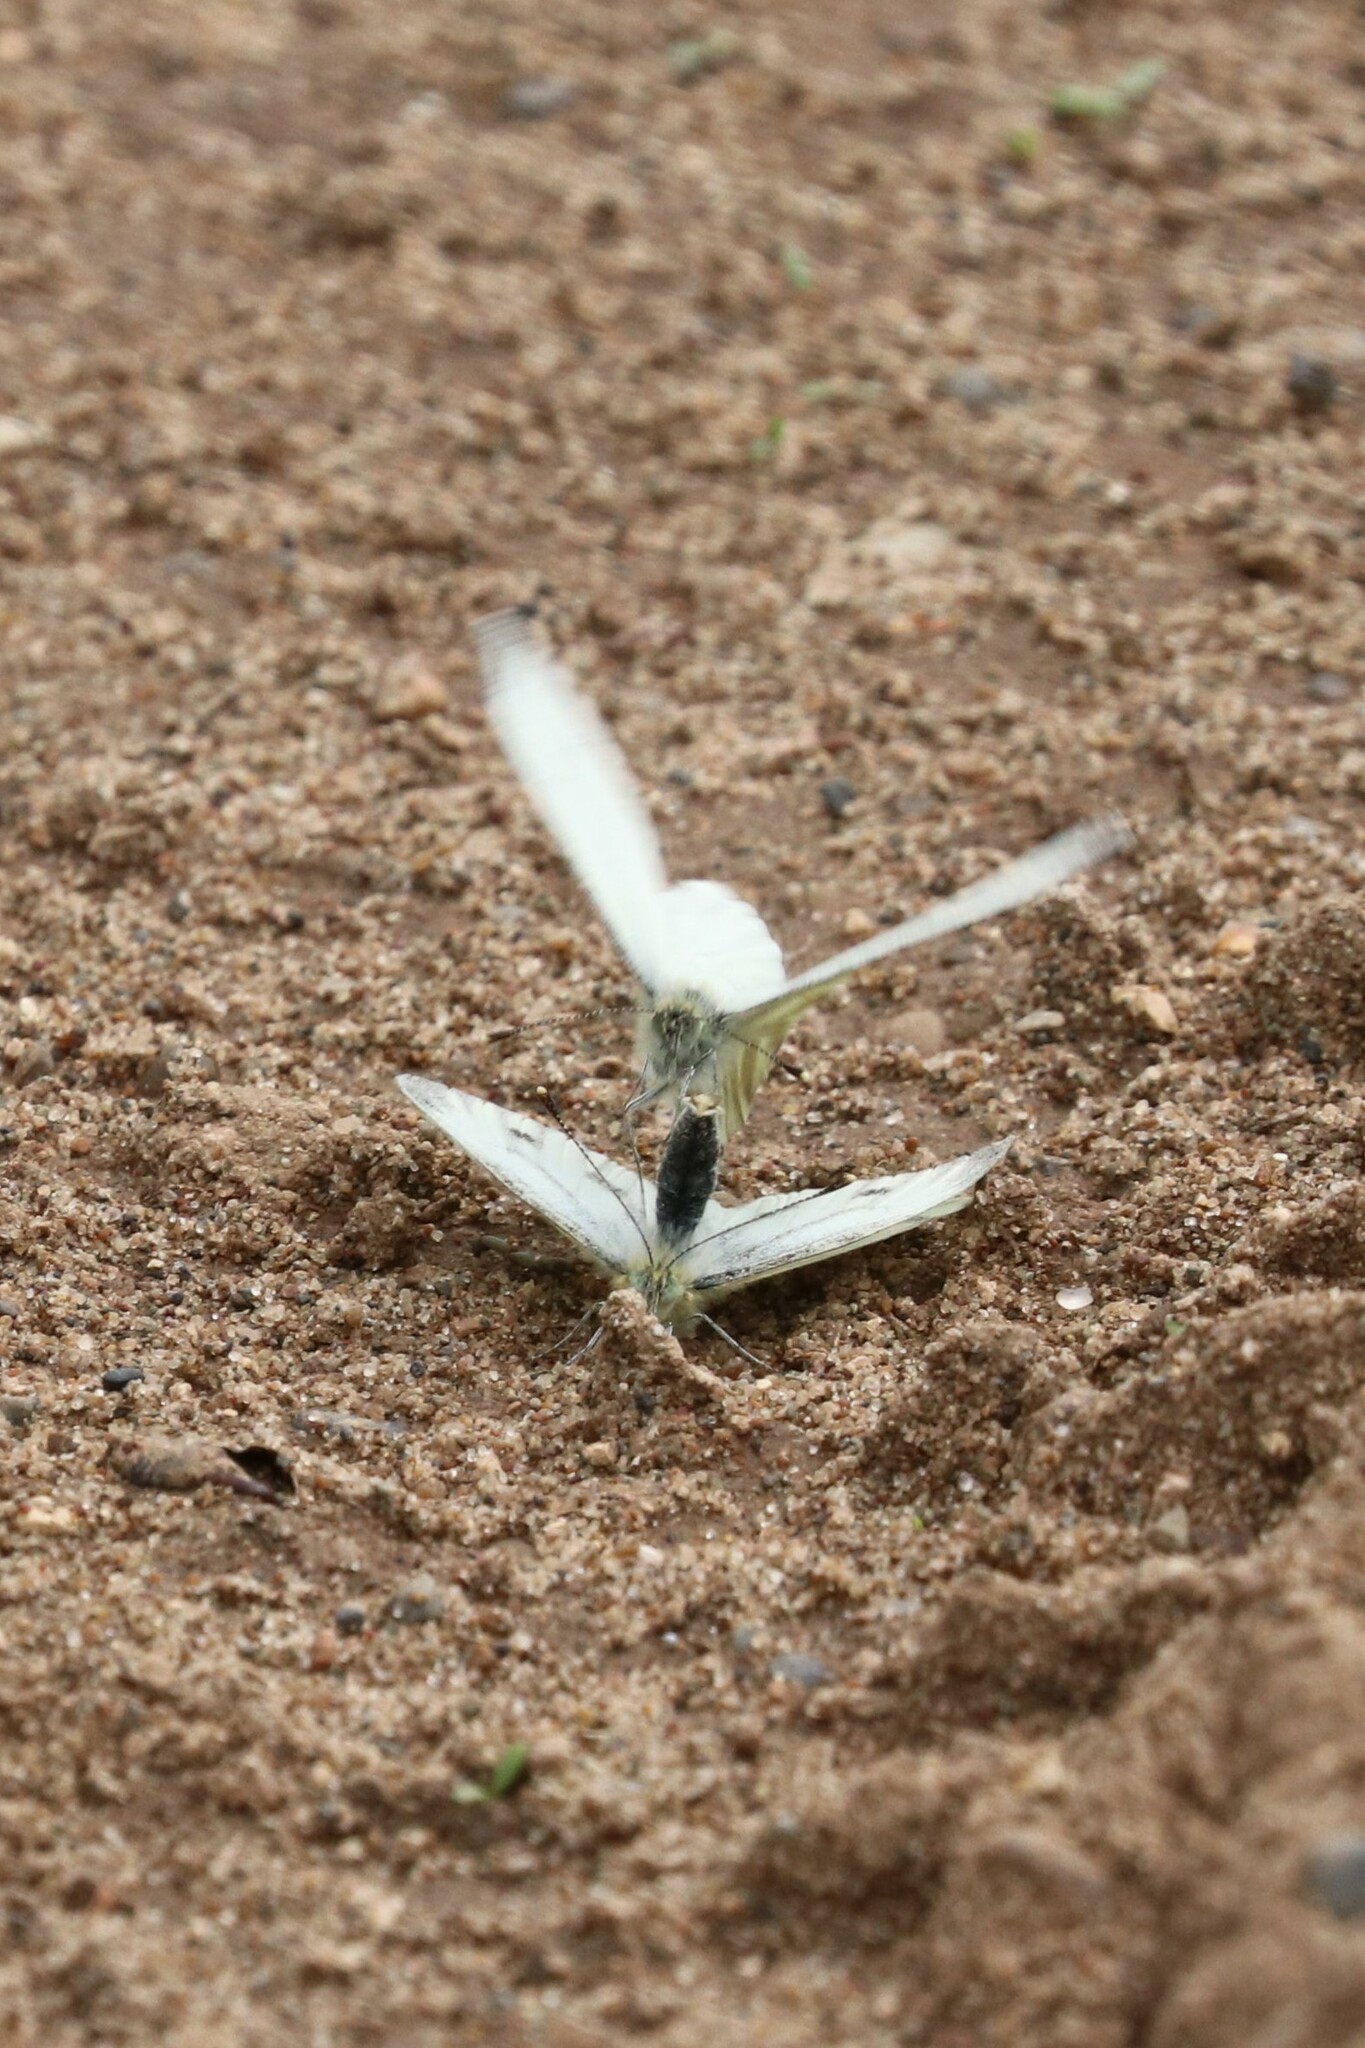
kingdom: Animalia
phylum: Arthropoda
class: Insecta
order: Lepidoptera
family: Pieridae
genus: Pieris
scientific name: Pieris napi
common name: Green-veined white
